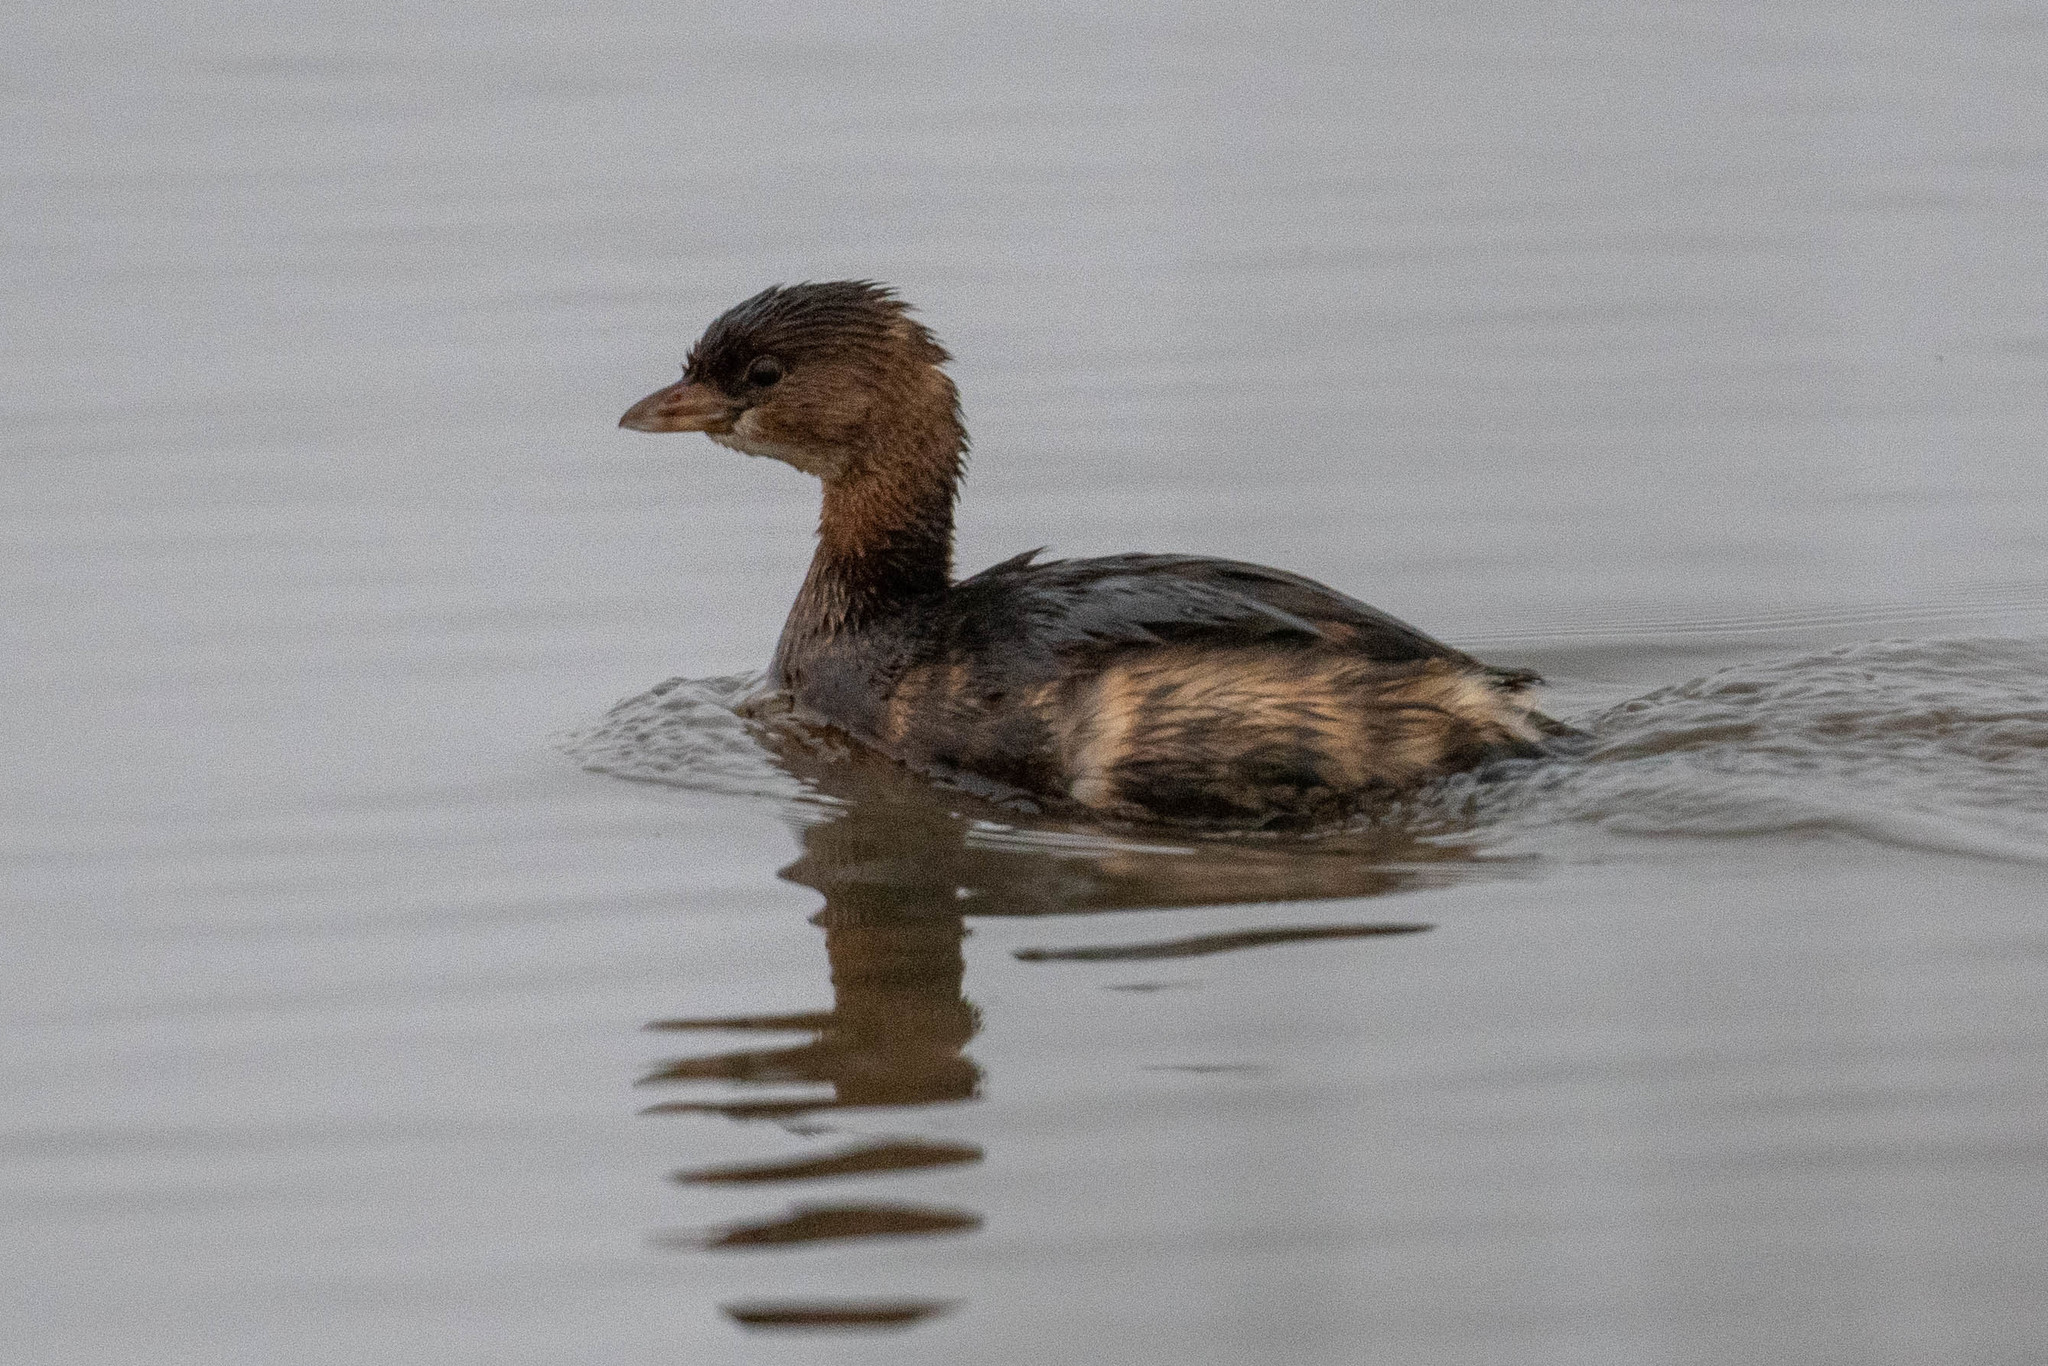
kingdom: Animalia
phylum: Chordata
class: Aves
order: Podicipediformes
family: Podicipedidae
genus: Podilymbus
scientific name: Podilymbus podiceps
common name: Pied-billed grebe
